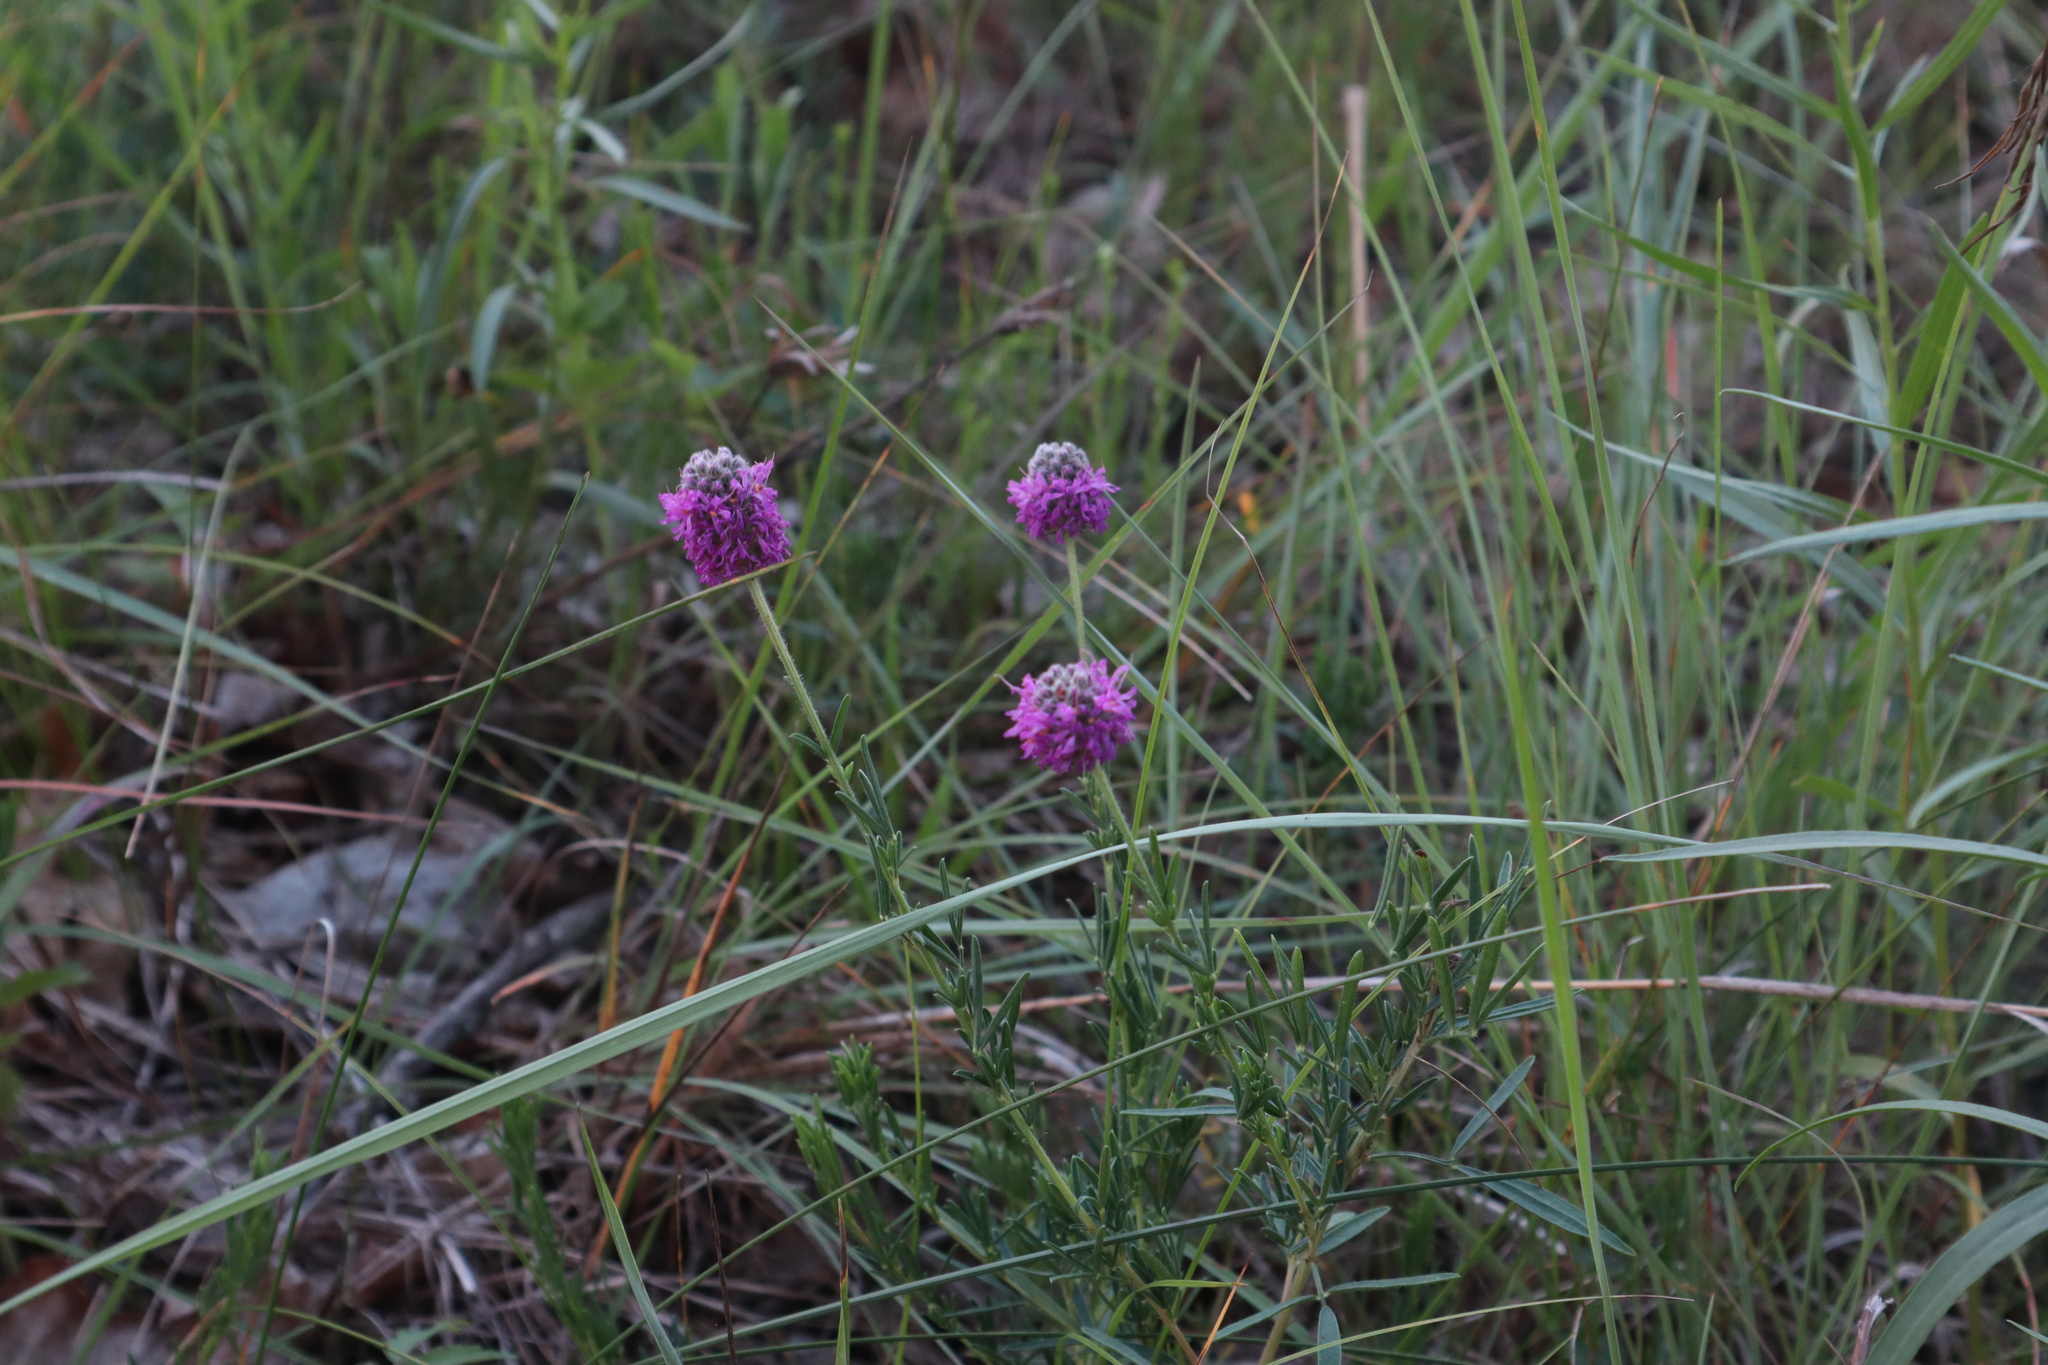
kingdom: Plantae
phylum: Tracheophyta
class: Magnoliopsida
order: Fabales
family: Fabaceae
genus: Dalea
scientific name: Dalea purpurea
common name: Purple prairie-clover
